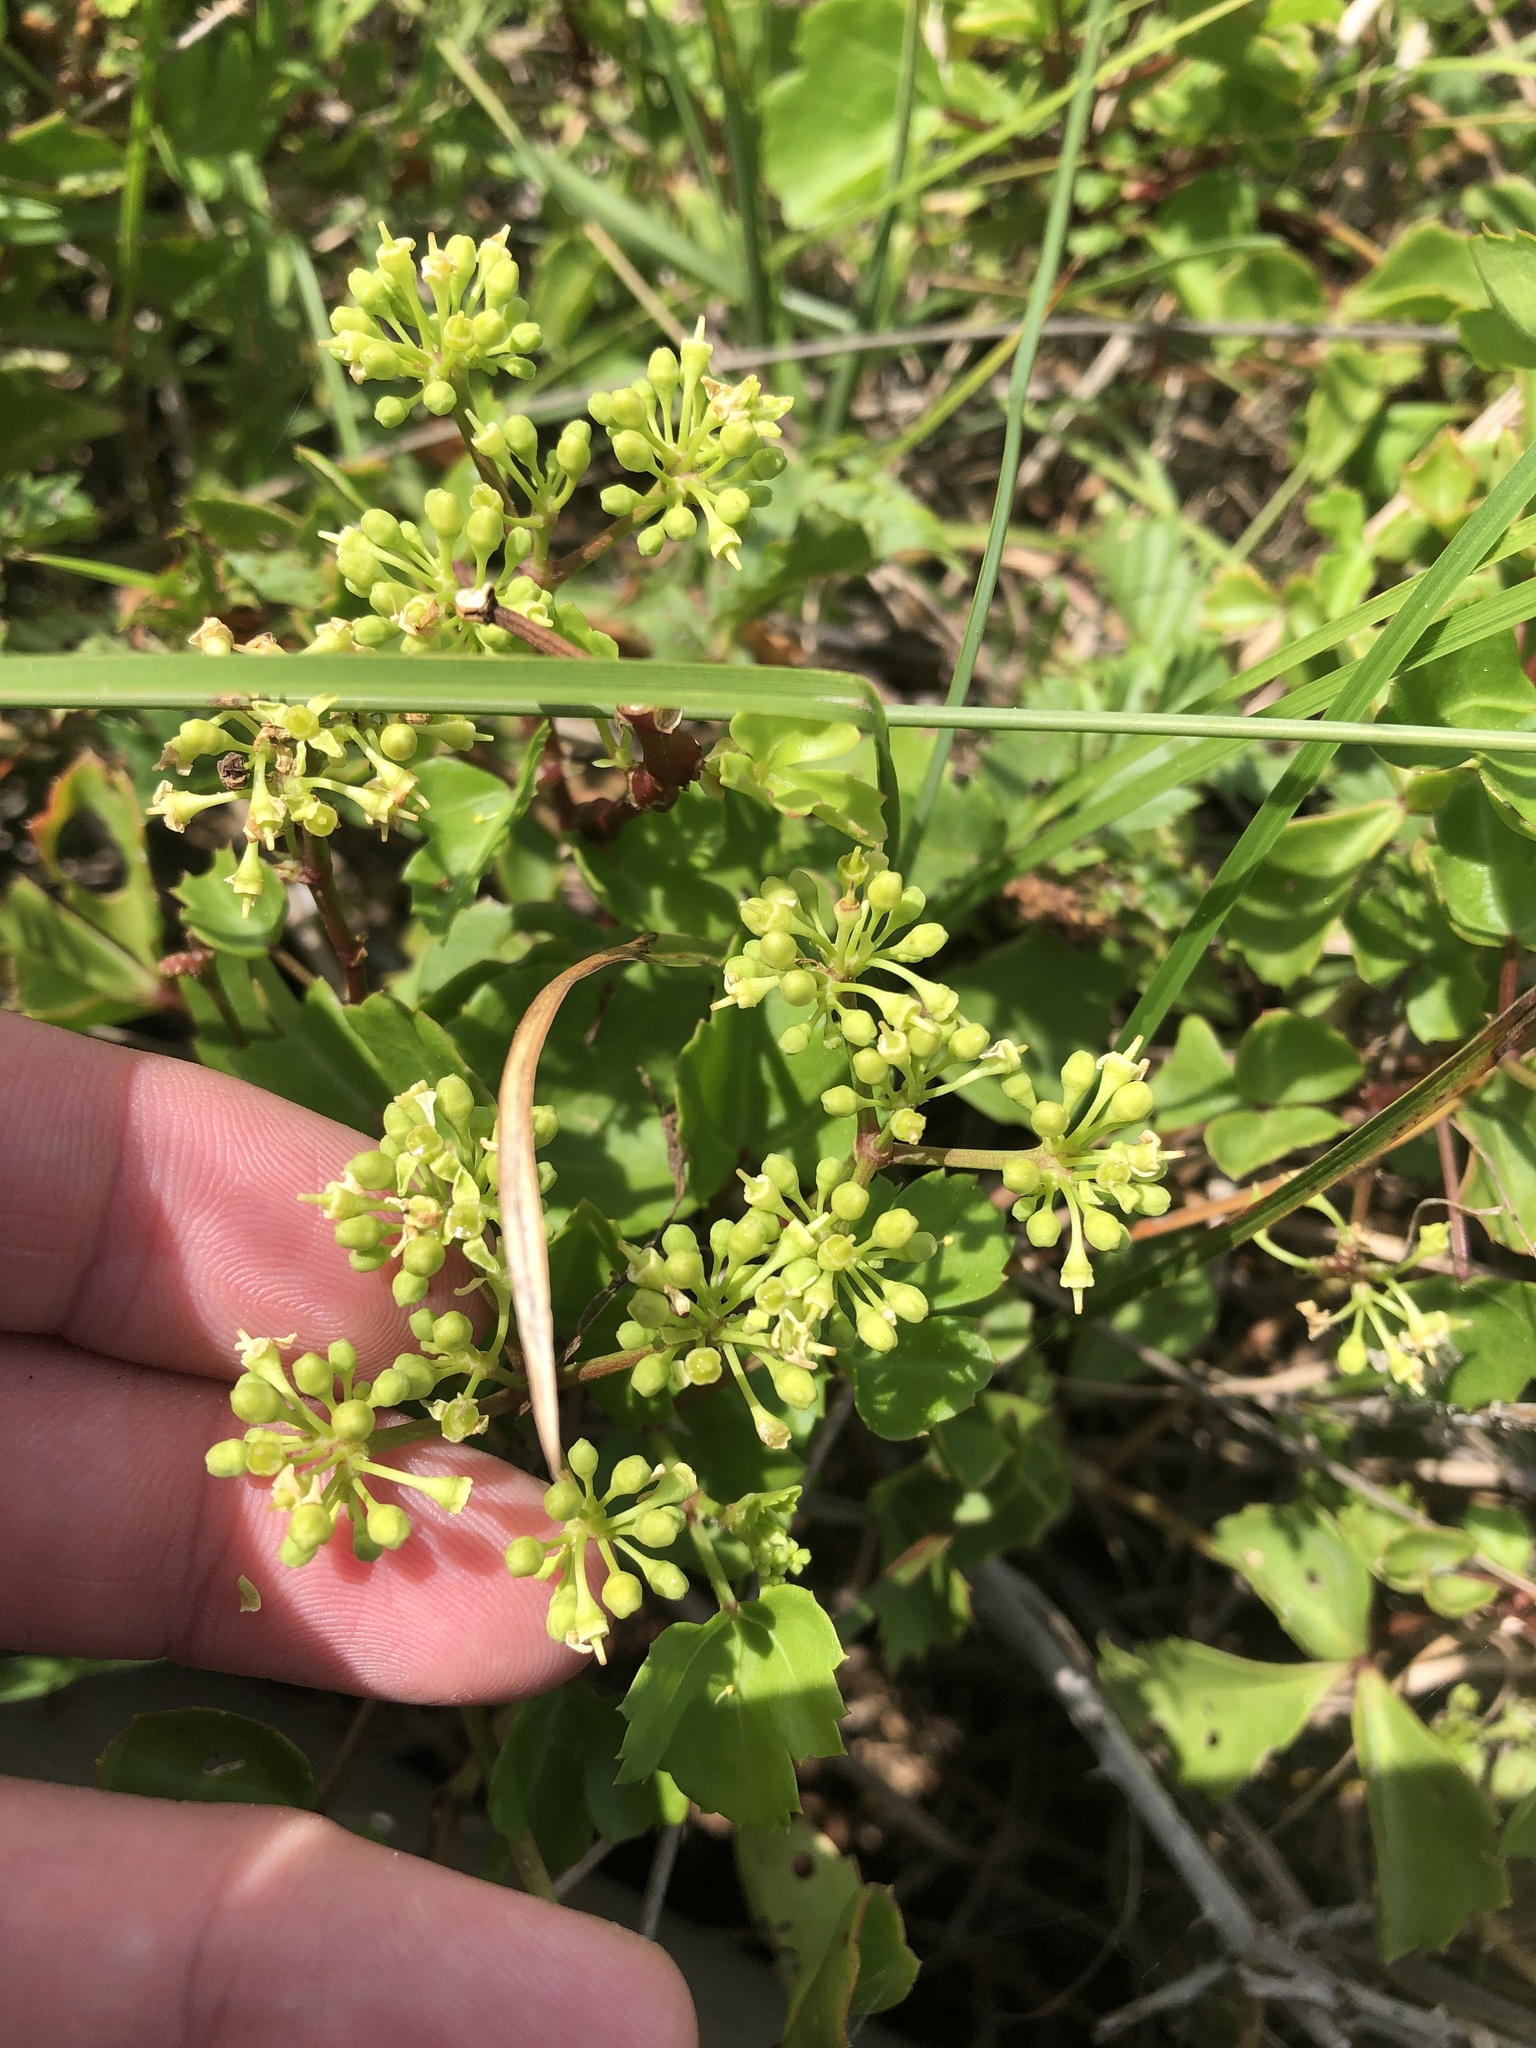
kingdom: Plantae
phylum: Tracheophyta
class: Magnoliopsida
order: Vitales
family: Vitaceae
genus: Cissus
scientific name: Cissus trifoliata
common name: Vine-sorrel
